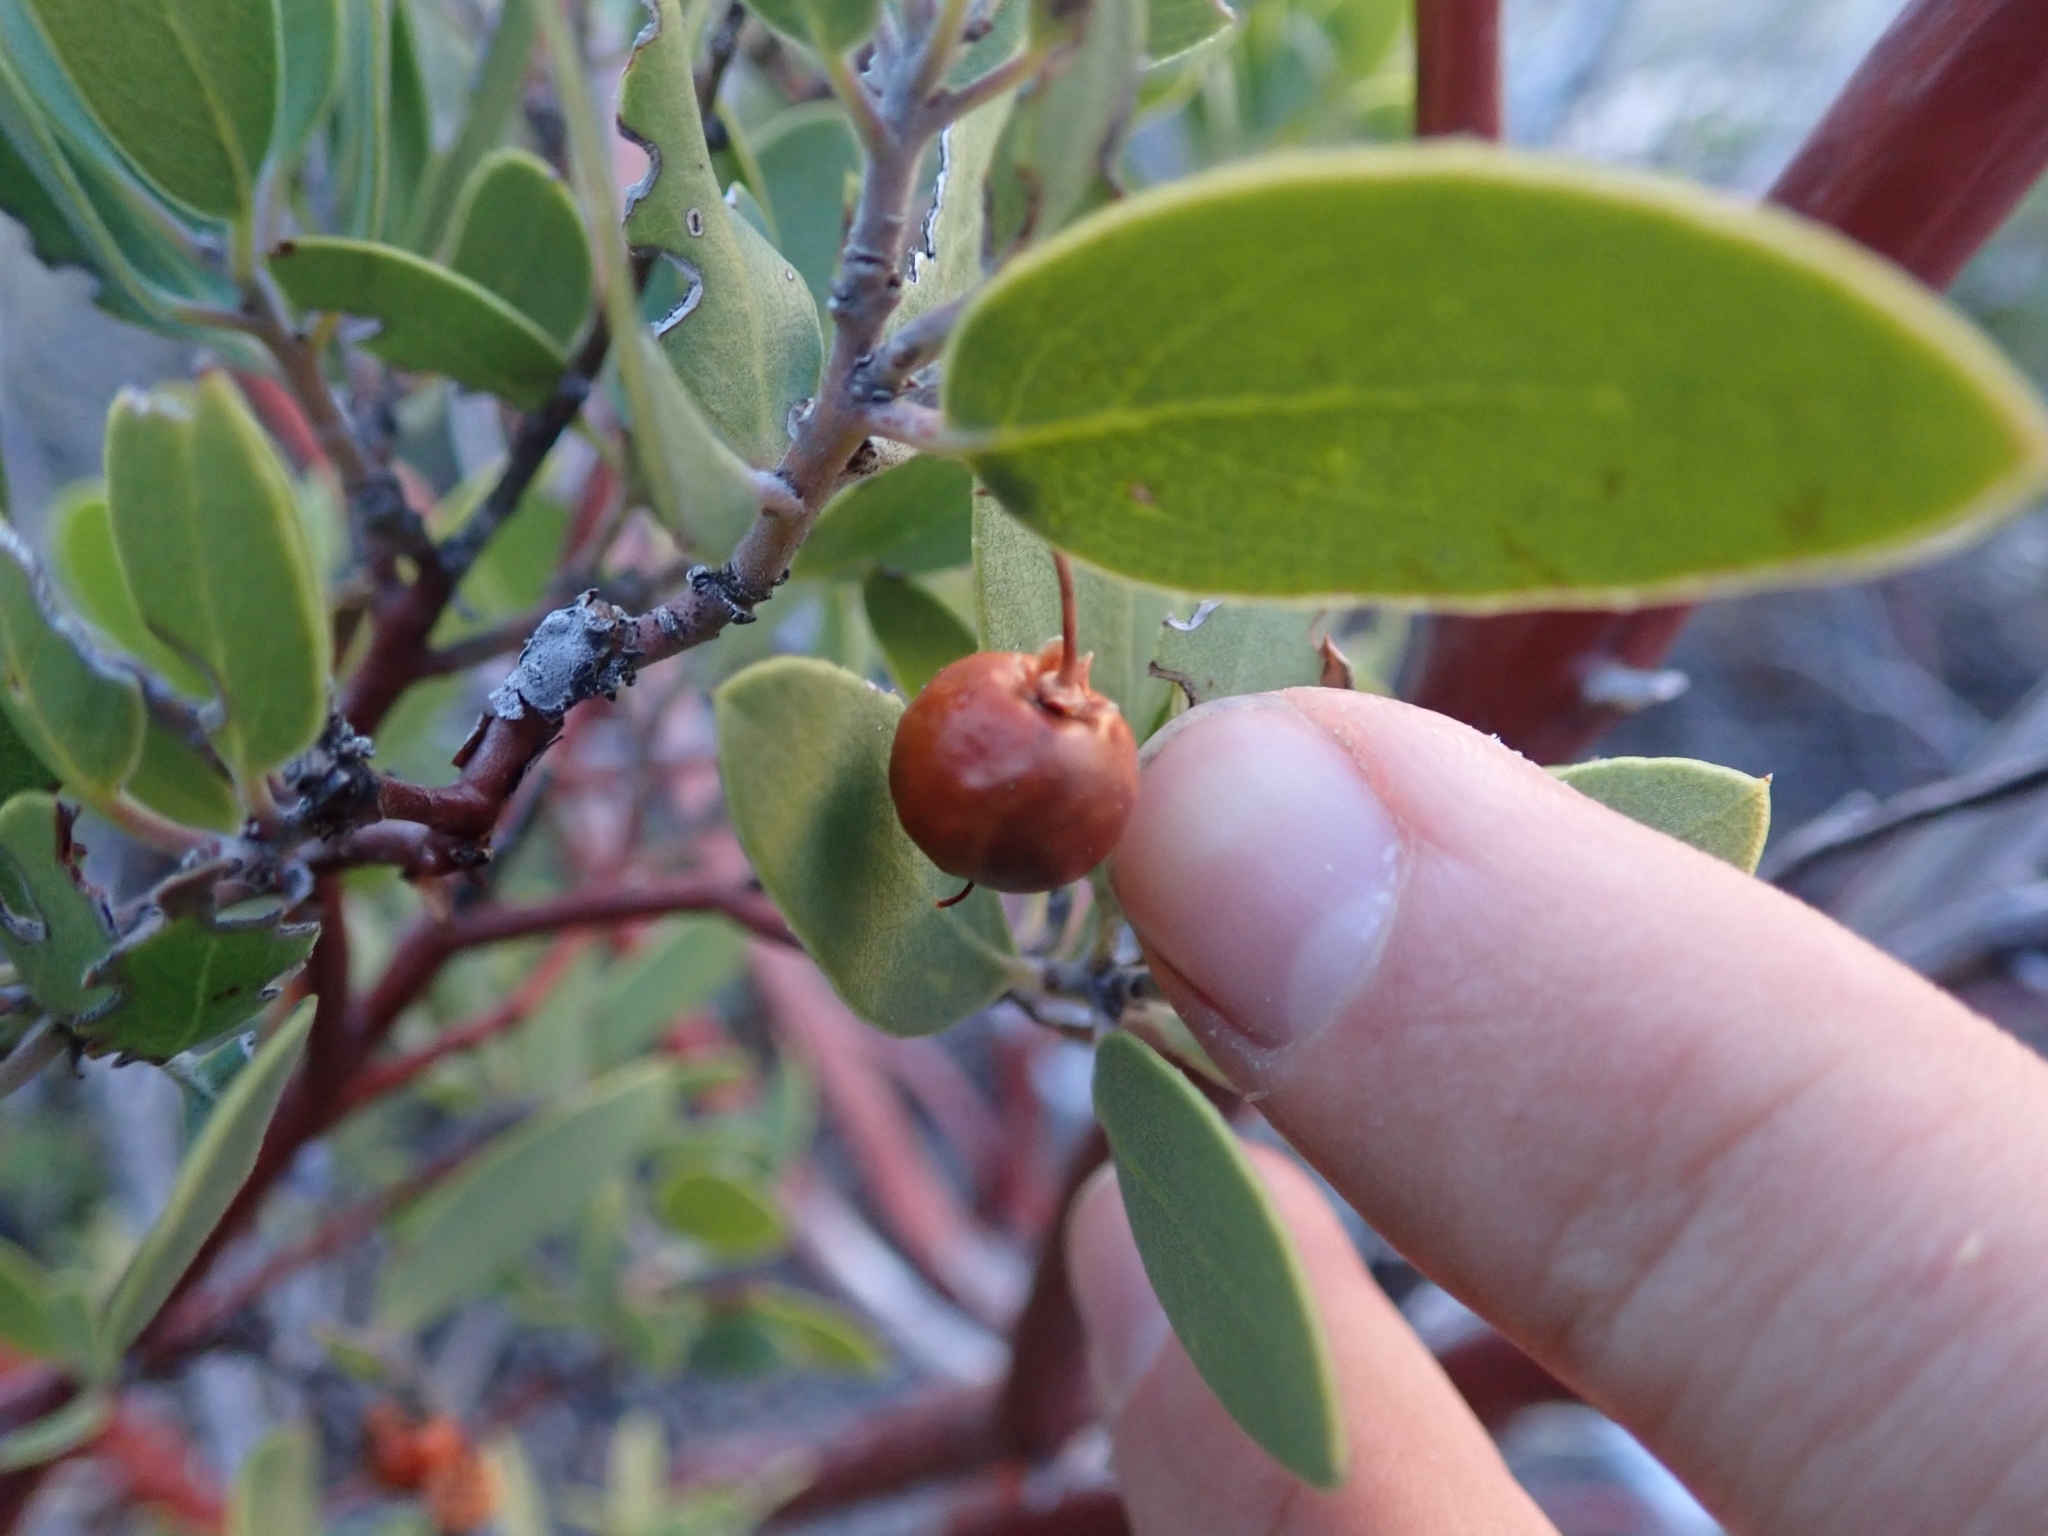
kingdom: Plantae
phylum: Tracheophyta
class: Magnoliopsida
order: Ericales
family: Ericaceae
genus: Arctostaphylos
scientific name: Arctostaphylos pungens
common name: Mexican manzanita
